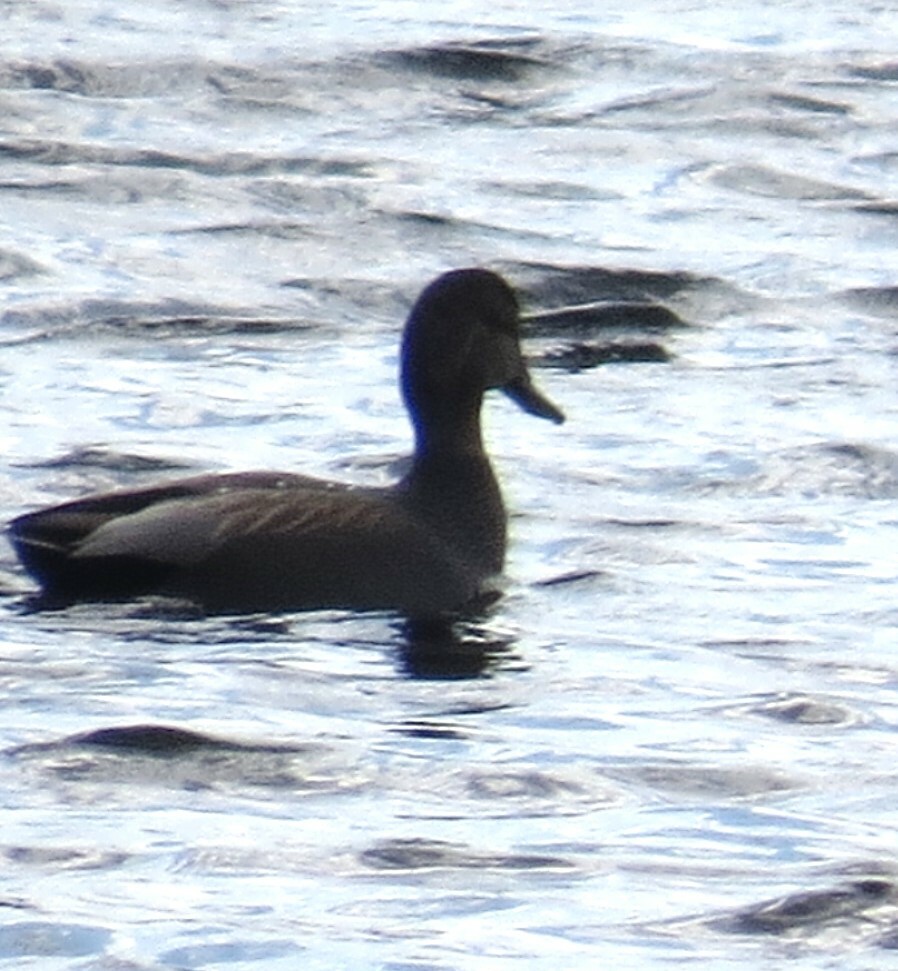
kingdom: Animalia
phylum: Chordata
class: Aves
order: Anseriformes
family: Anatidae
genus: Mareca
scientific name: Mareca strepera
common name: Gadwall
